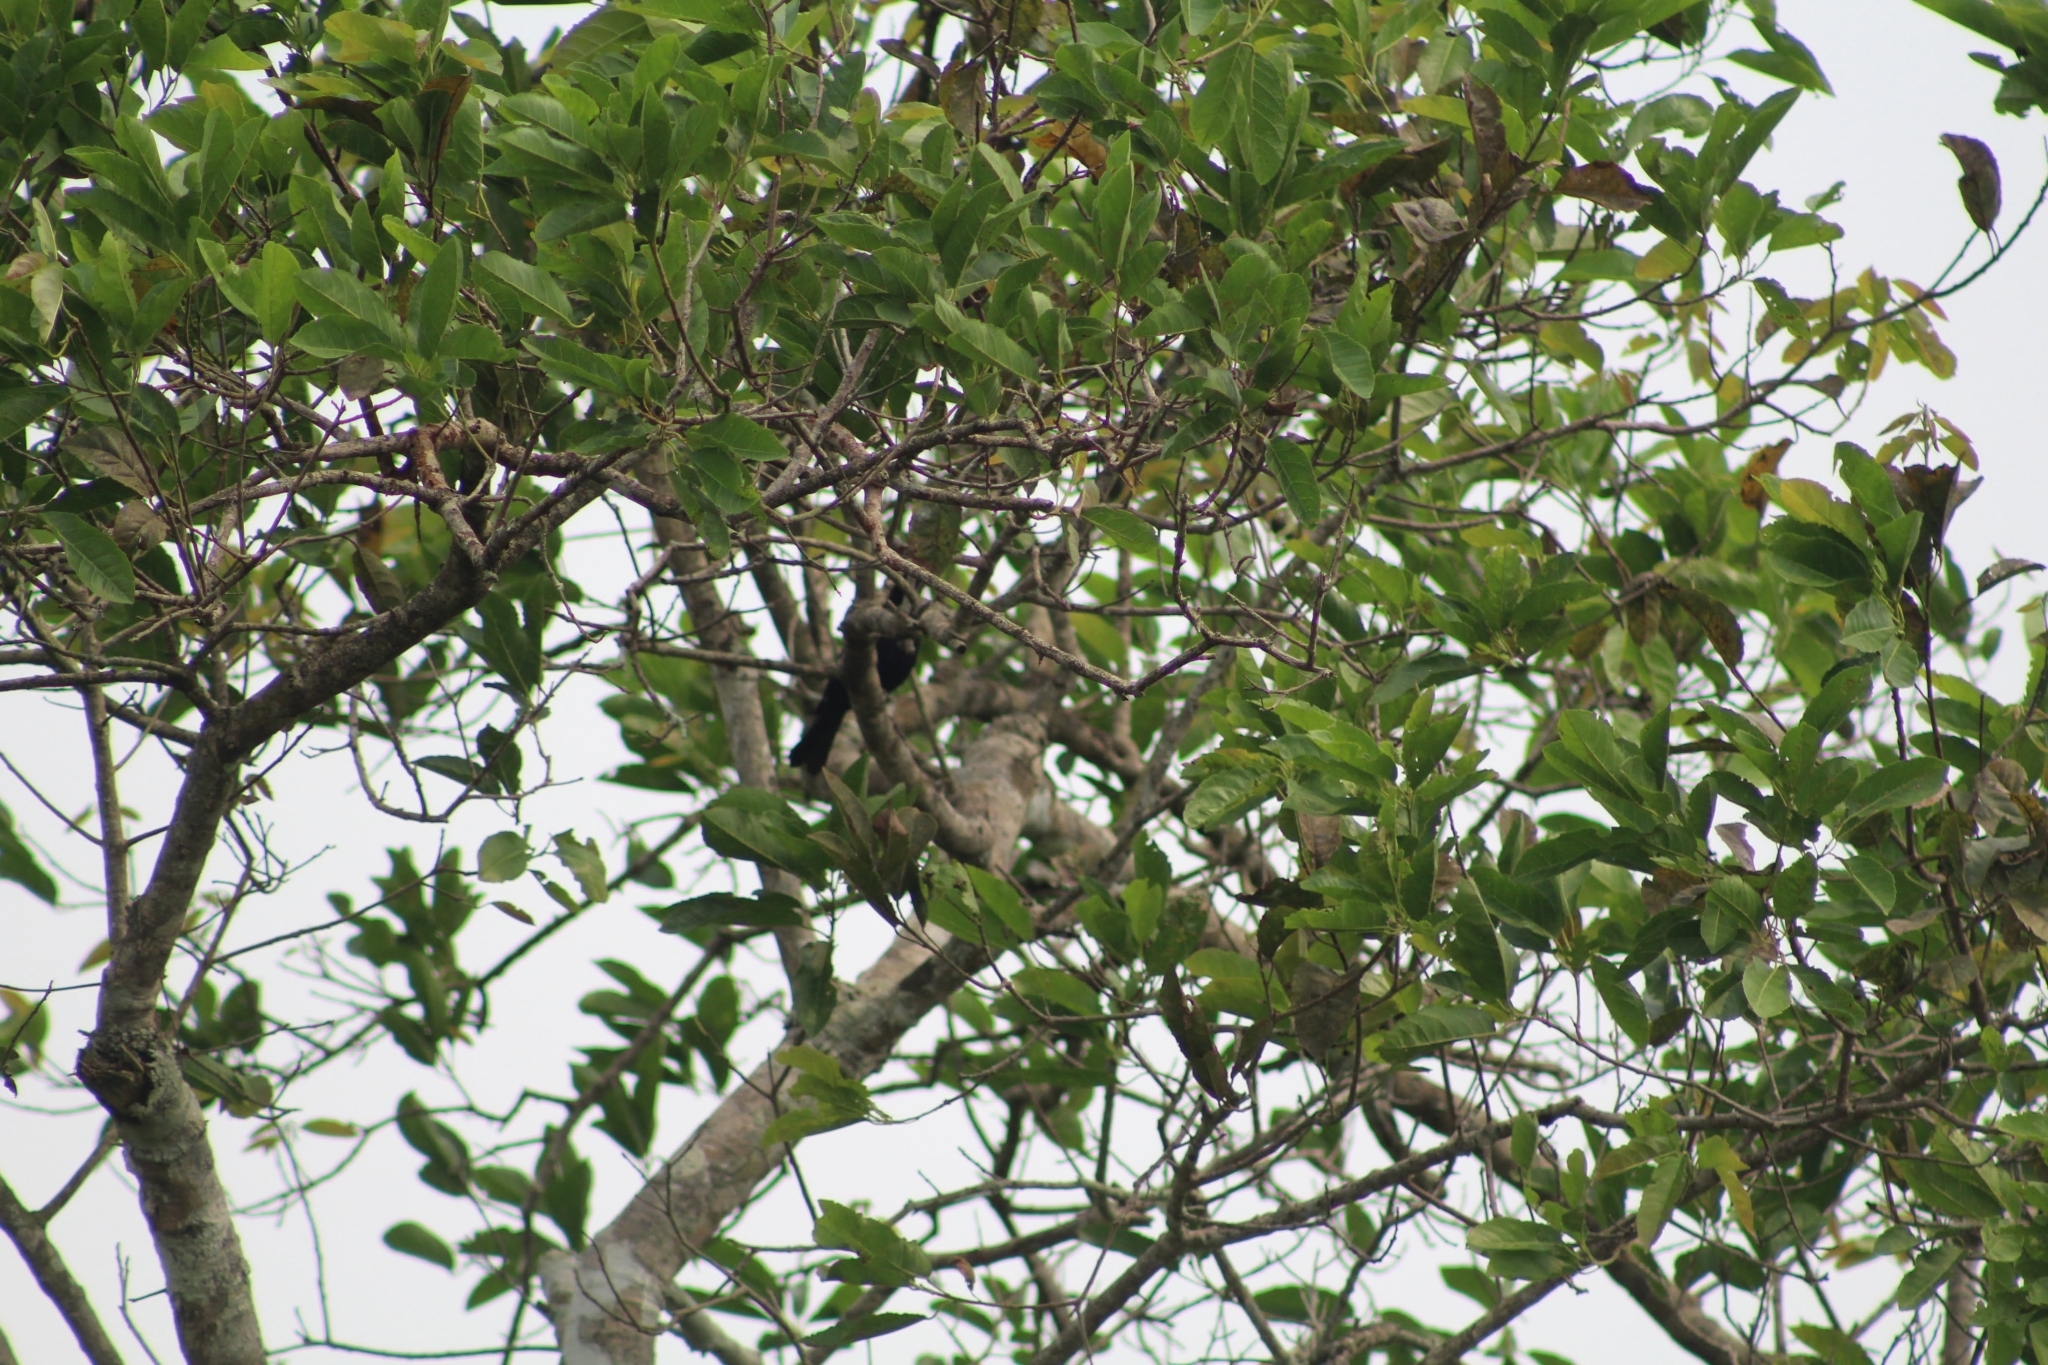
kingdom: Animalia
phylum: Chordata
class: Aves
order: Passeriformes
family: Icteridae
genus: Molothrus
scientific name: Molothrus bonariensis
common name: Shiny cowbird
